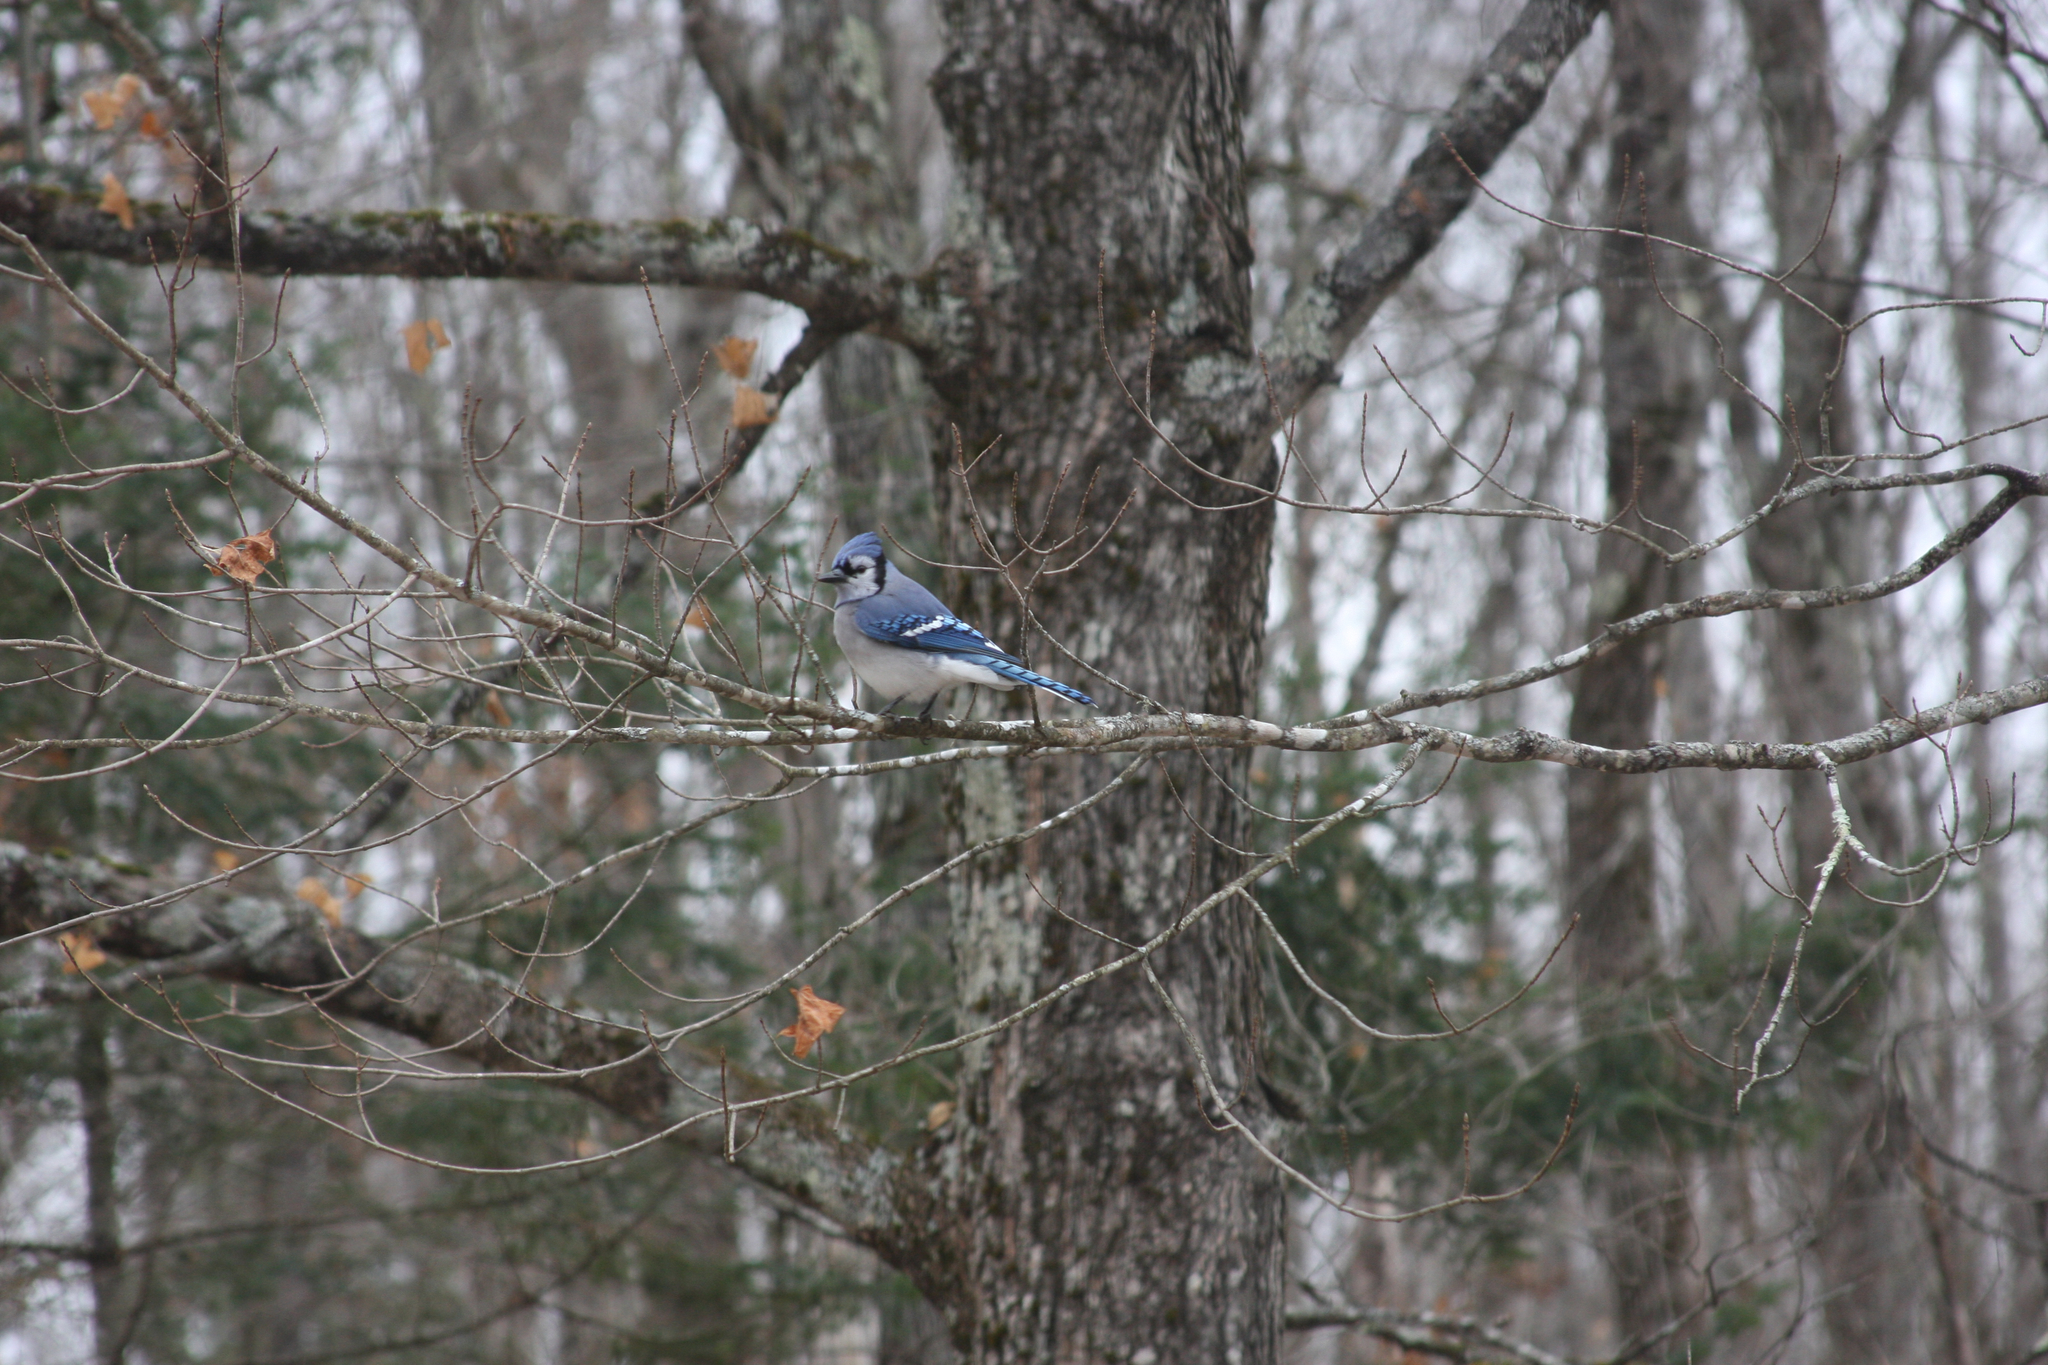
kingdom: Animalia
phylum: Chordata
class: Aves
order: Passeriformes
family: Corvidae
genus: Cyanocitta
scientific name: Cyanocitta cristata
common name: Blue jay
